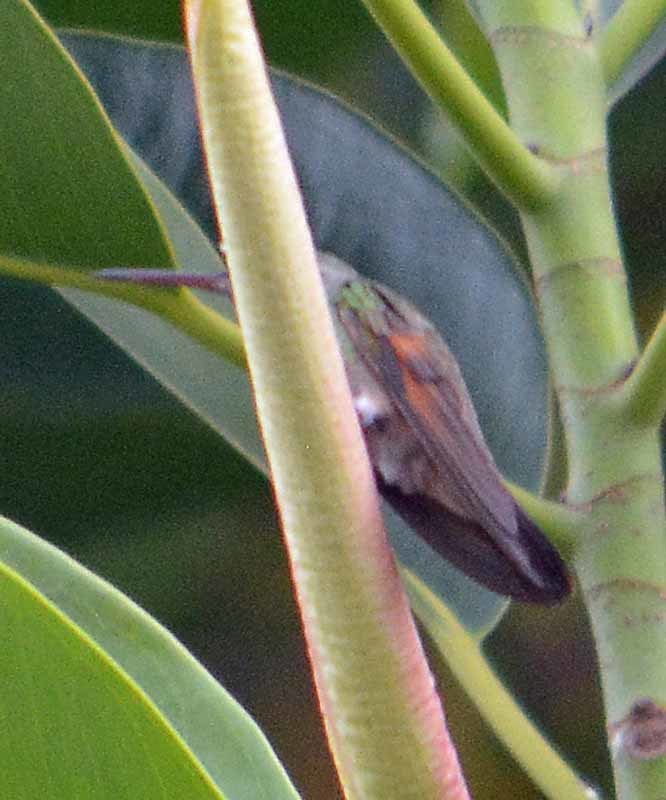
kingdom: Animalia
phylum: Chordata
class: Aves
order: Apodiformes
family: Trochilidae
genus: Saucerottia
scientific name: Saucerottia beryllina
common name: Berylline hummingbird
